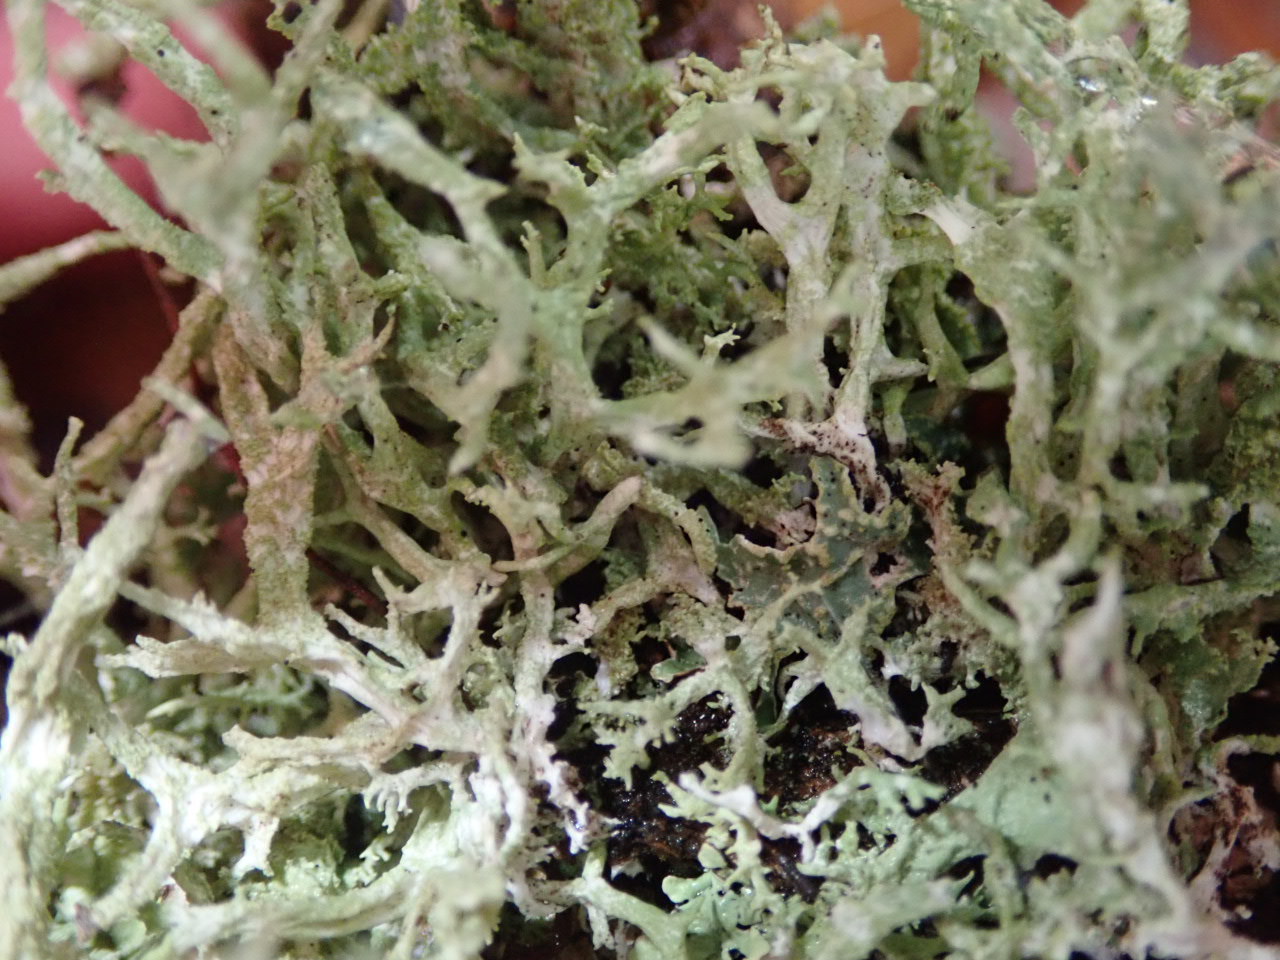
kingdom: Fungi
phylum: Ascomycota
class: Lecanoromycetes
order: Lecanorales
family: Parmeliaceae
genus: Pseudevernia
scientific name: Pseudevernia consocians
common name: Common antler lichen
